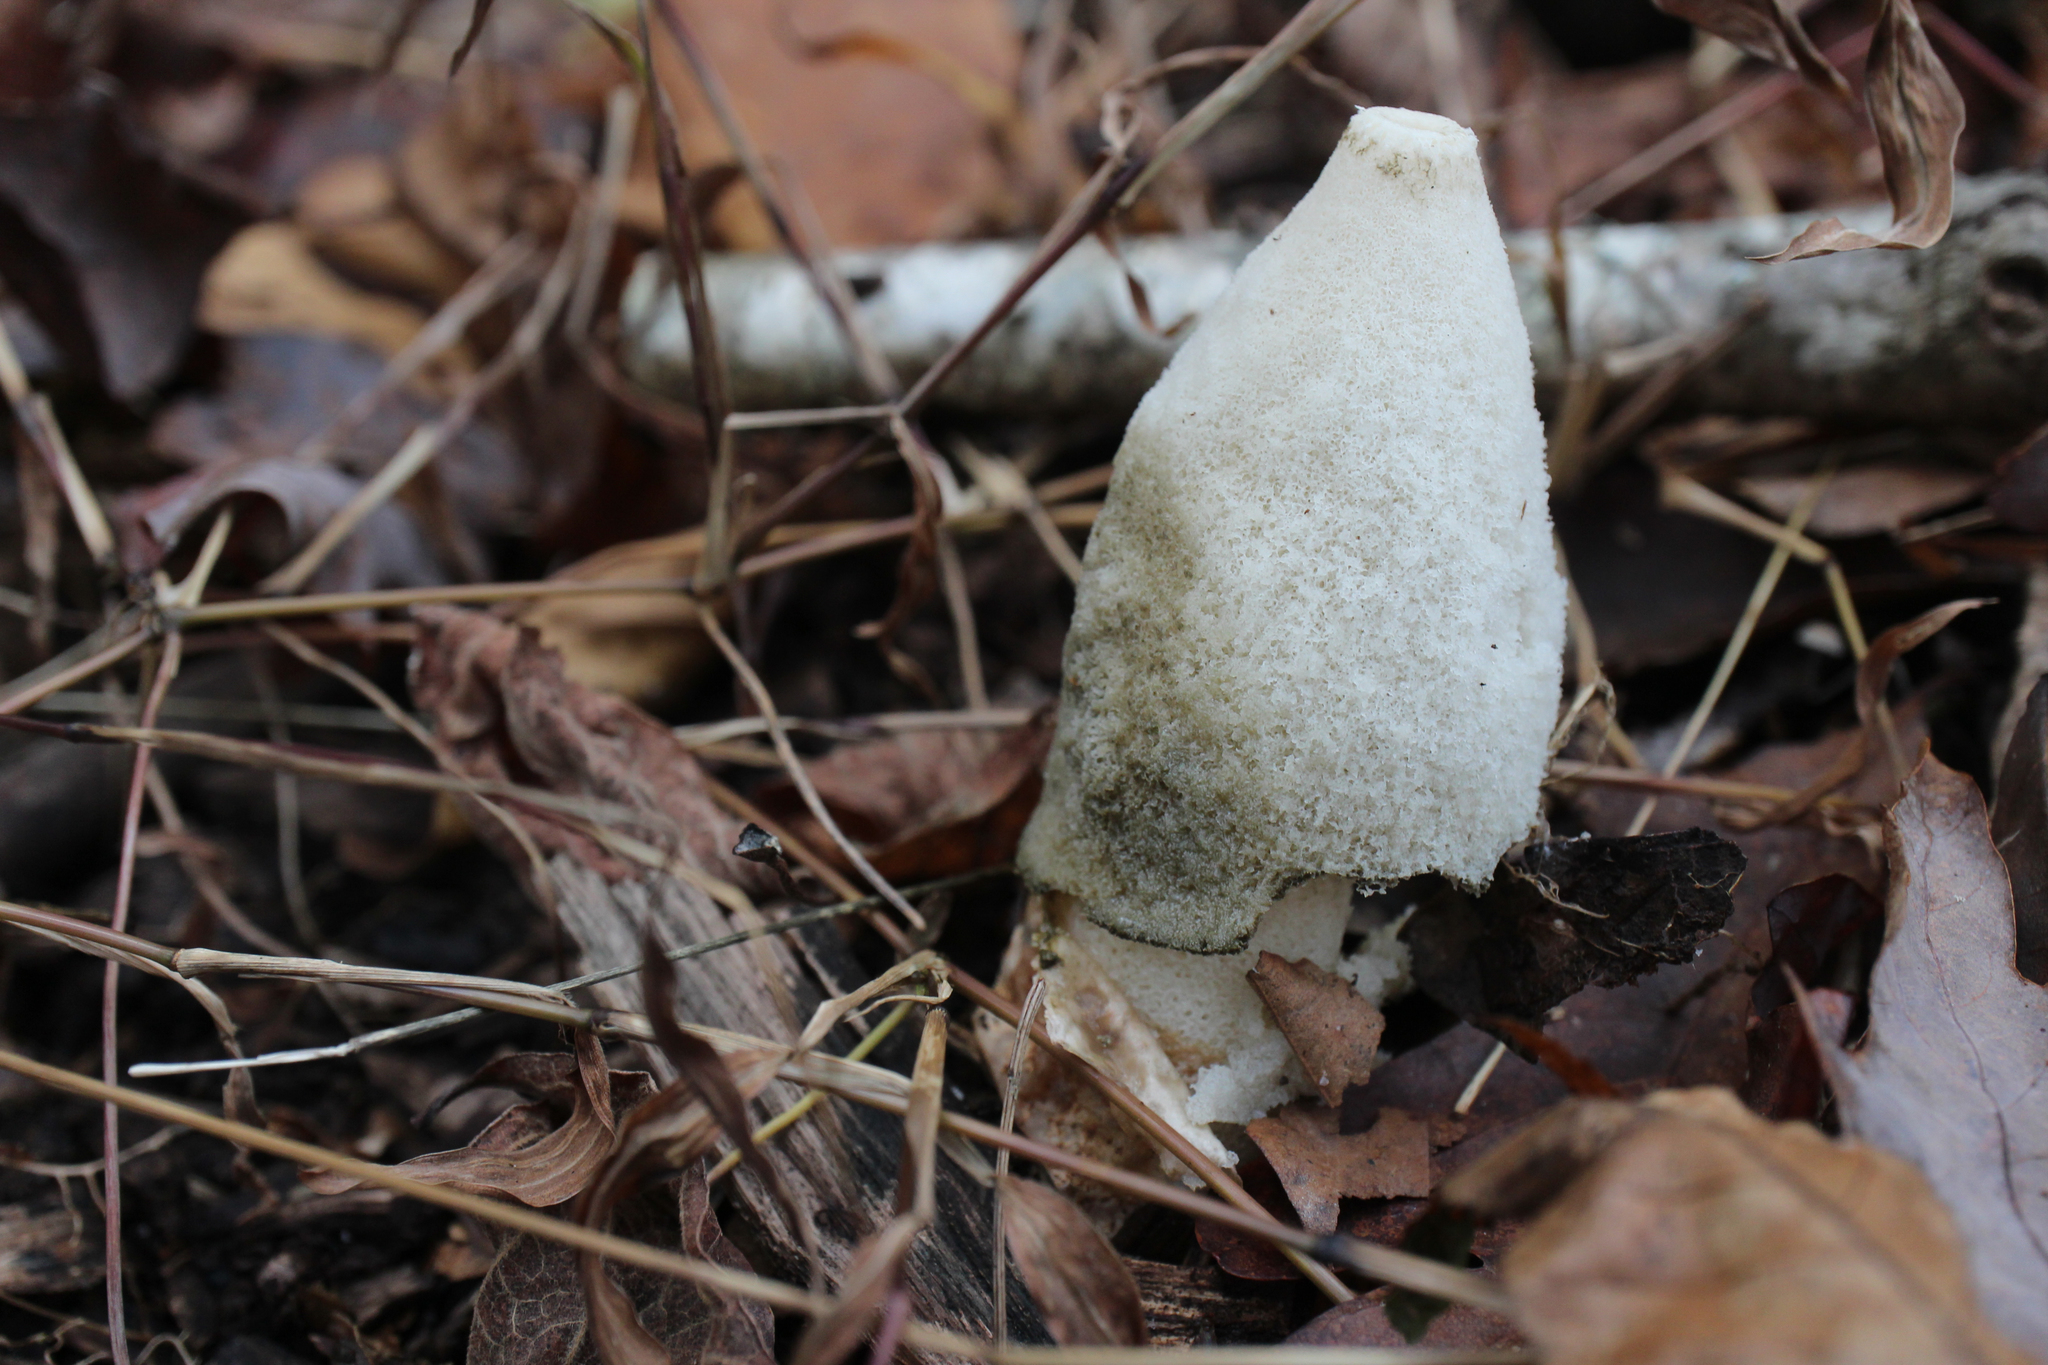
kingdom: Fungi
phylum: Basidiomycota
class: Agaricomycetes
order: Phallales
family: Phallaceae
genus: Phallus
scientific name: Phallus ravenelii
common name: Ravenel's stinkhorn
